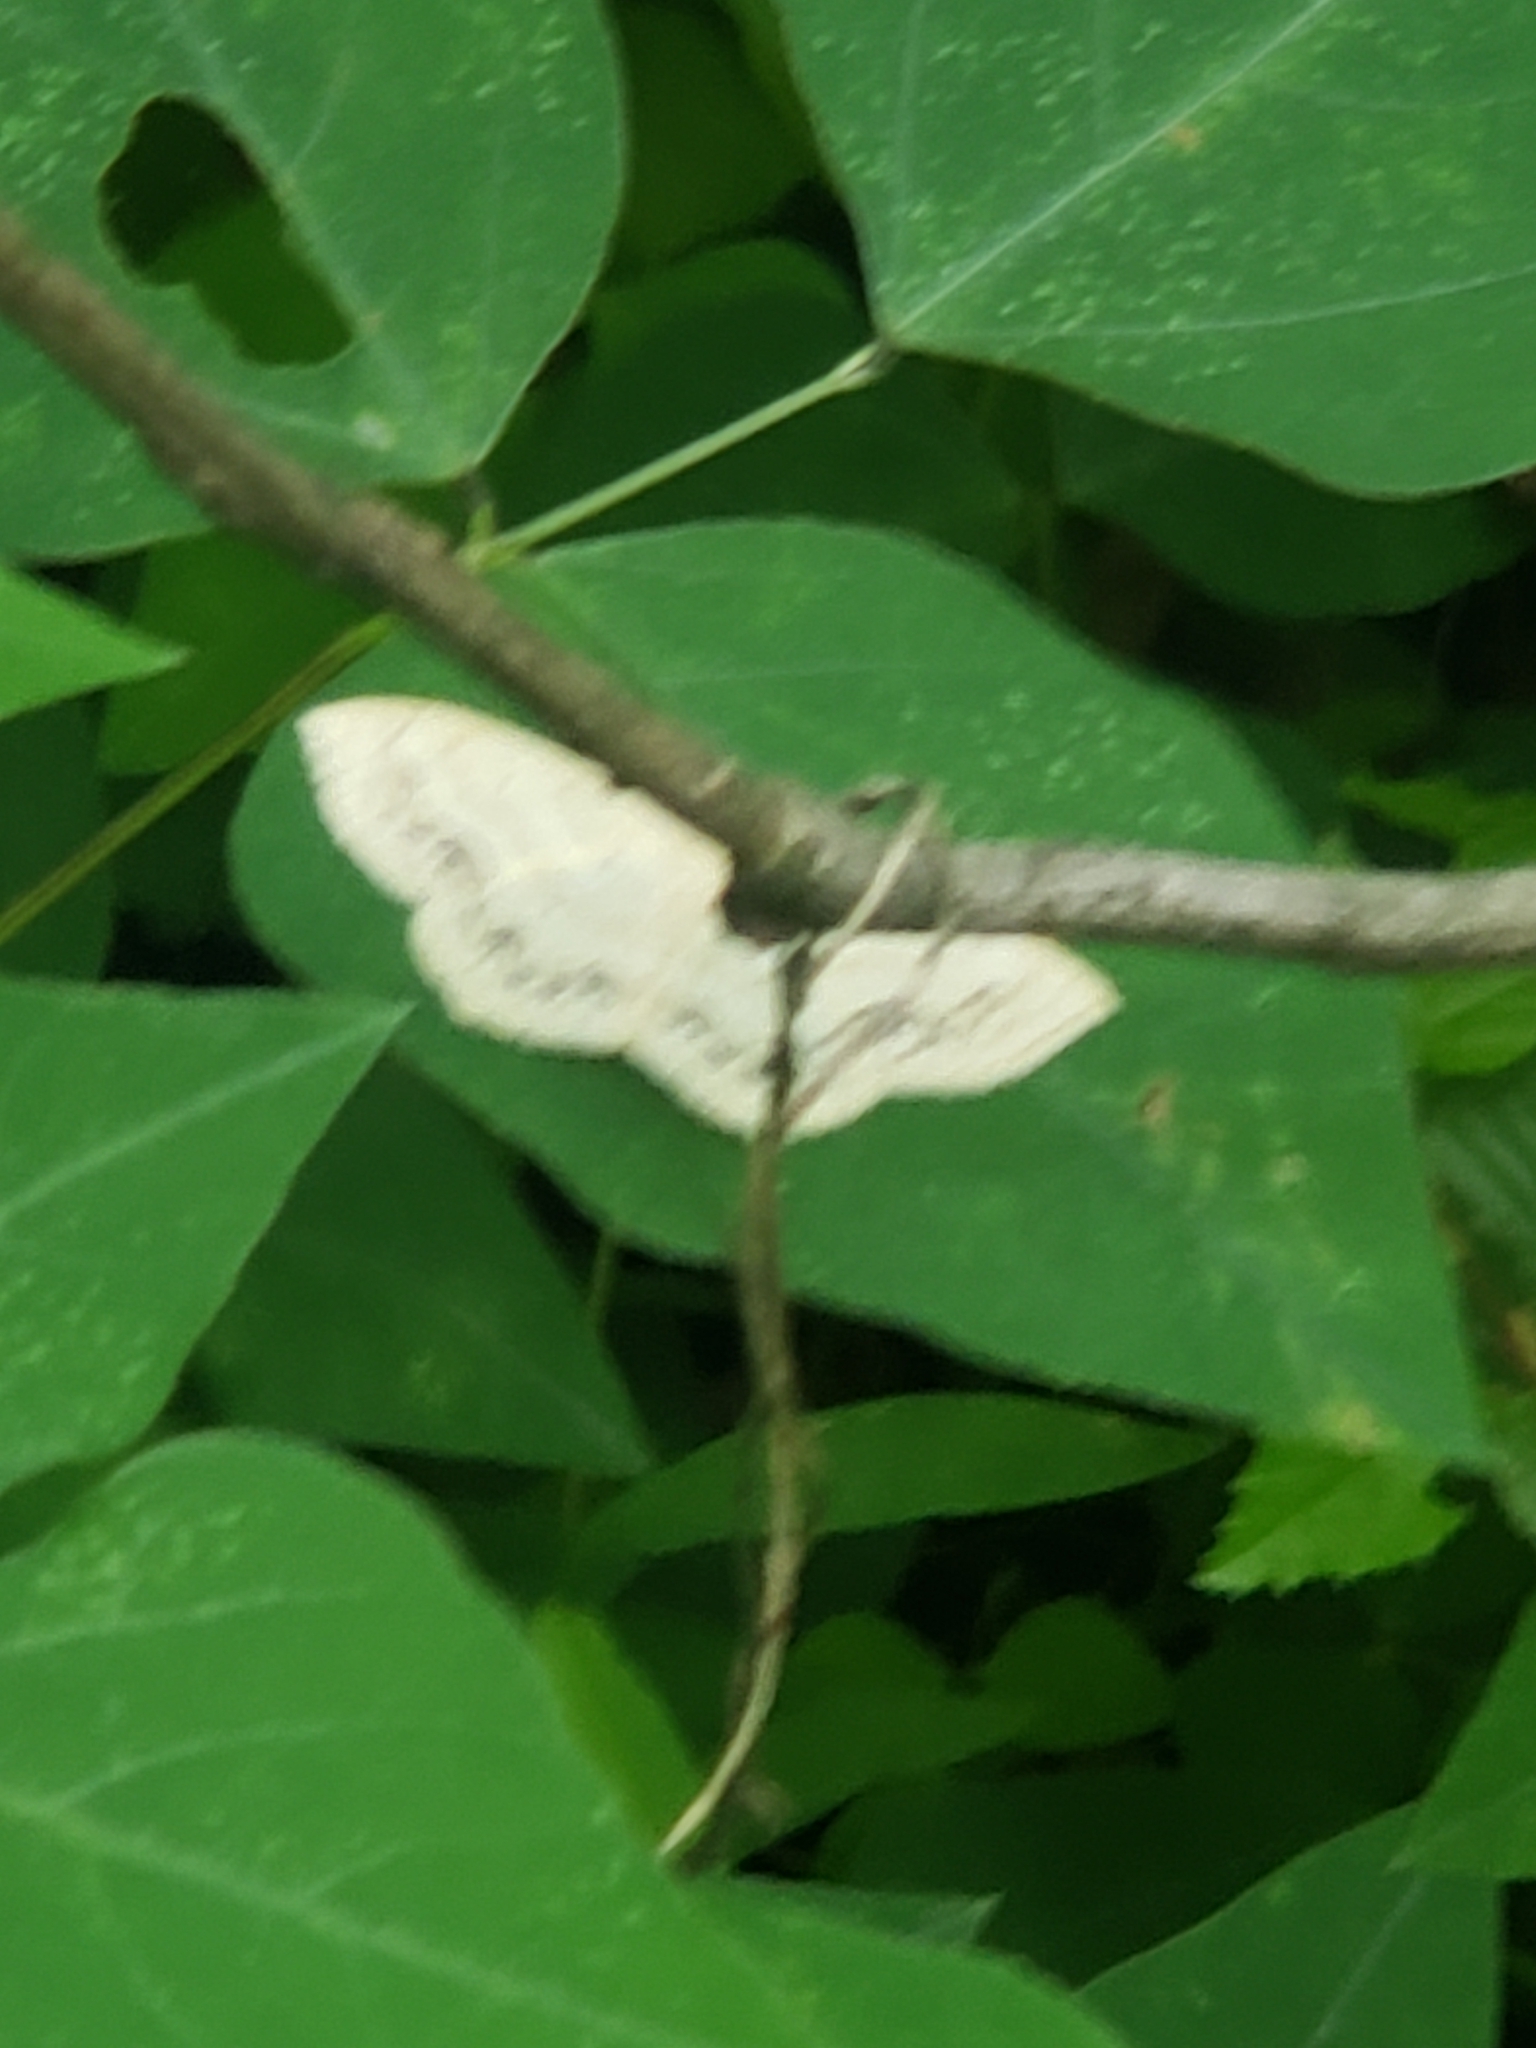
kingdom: Animalia
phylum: Arthropoda
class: Insecta
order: Lepidoptera
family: Geometridae
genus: Scopula
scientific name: Scopula limboundata
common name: Large lace border
